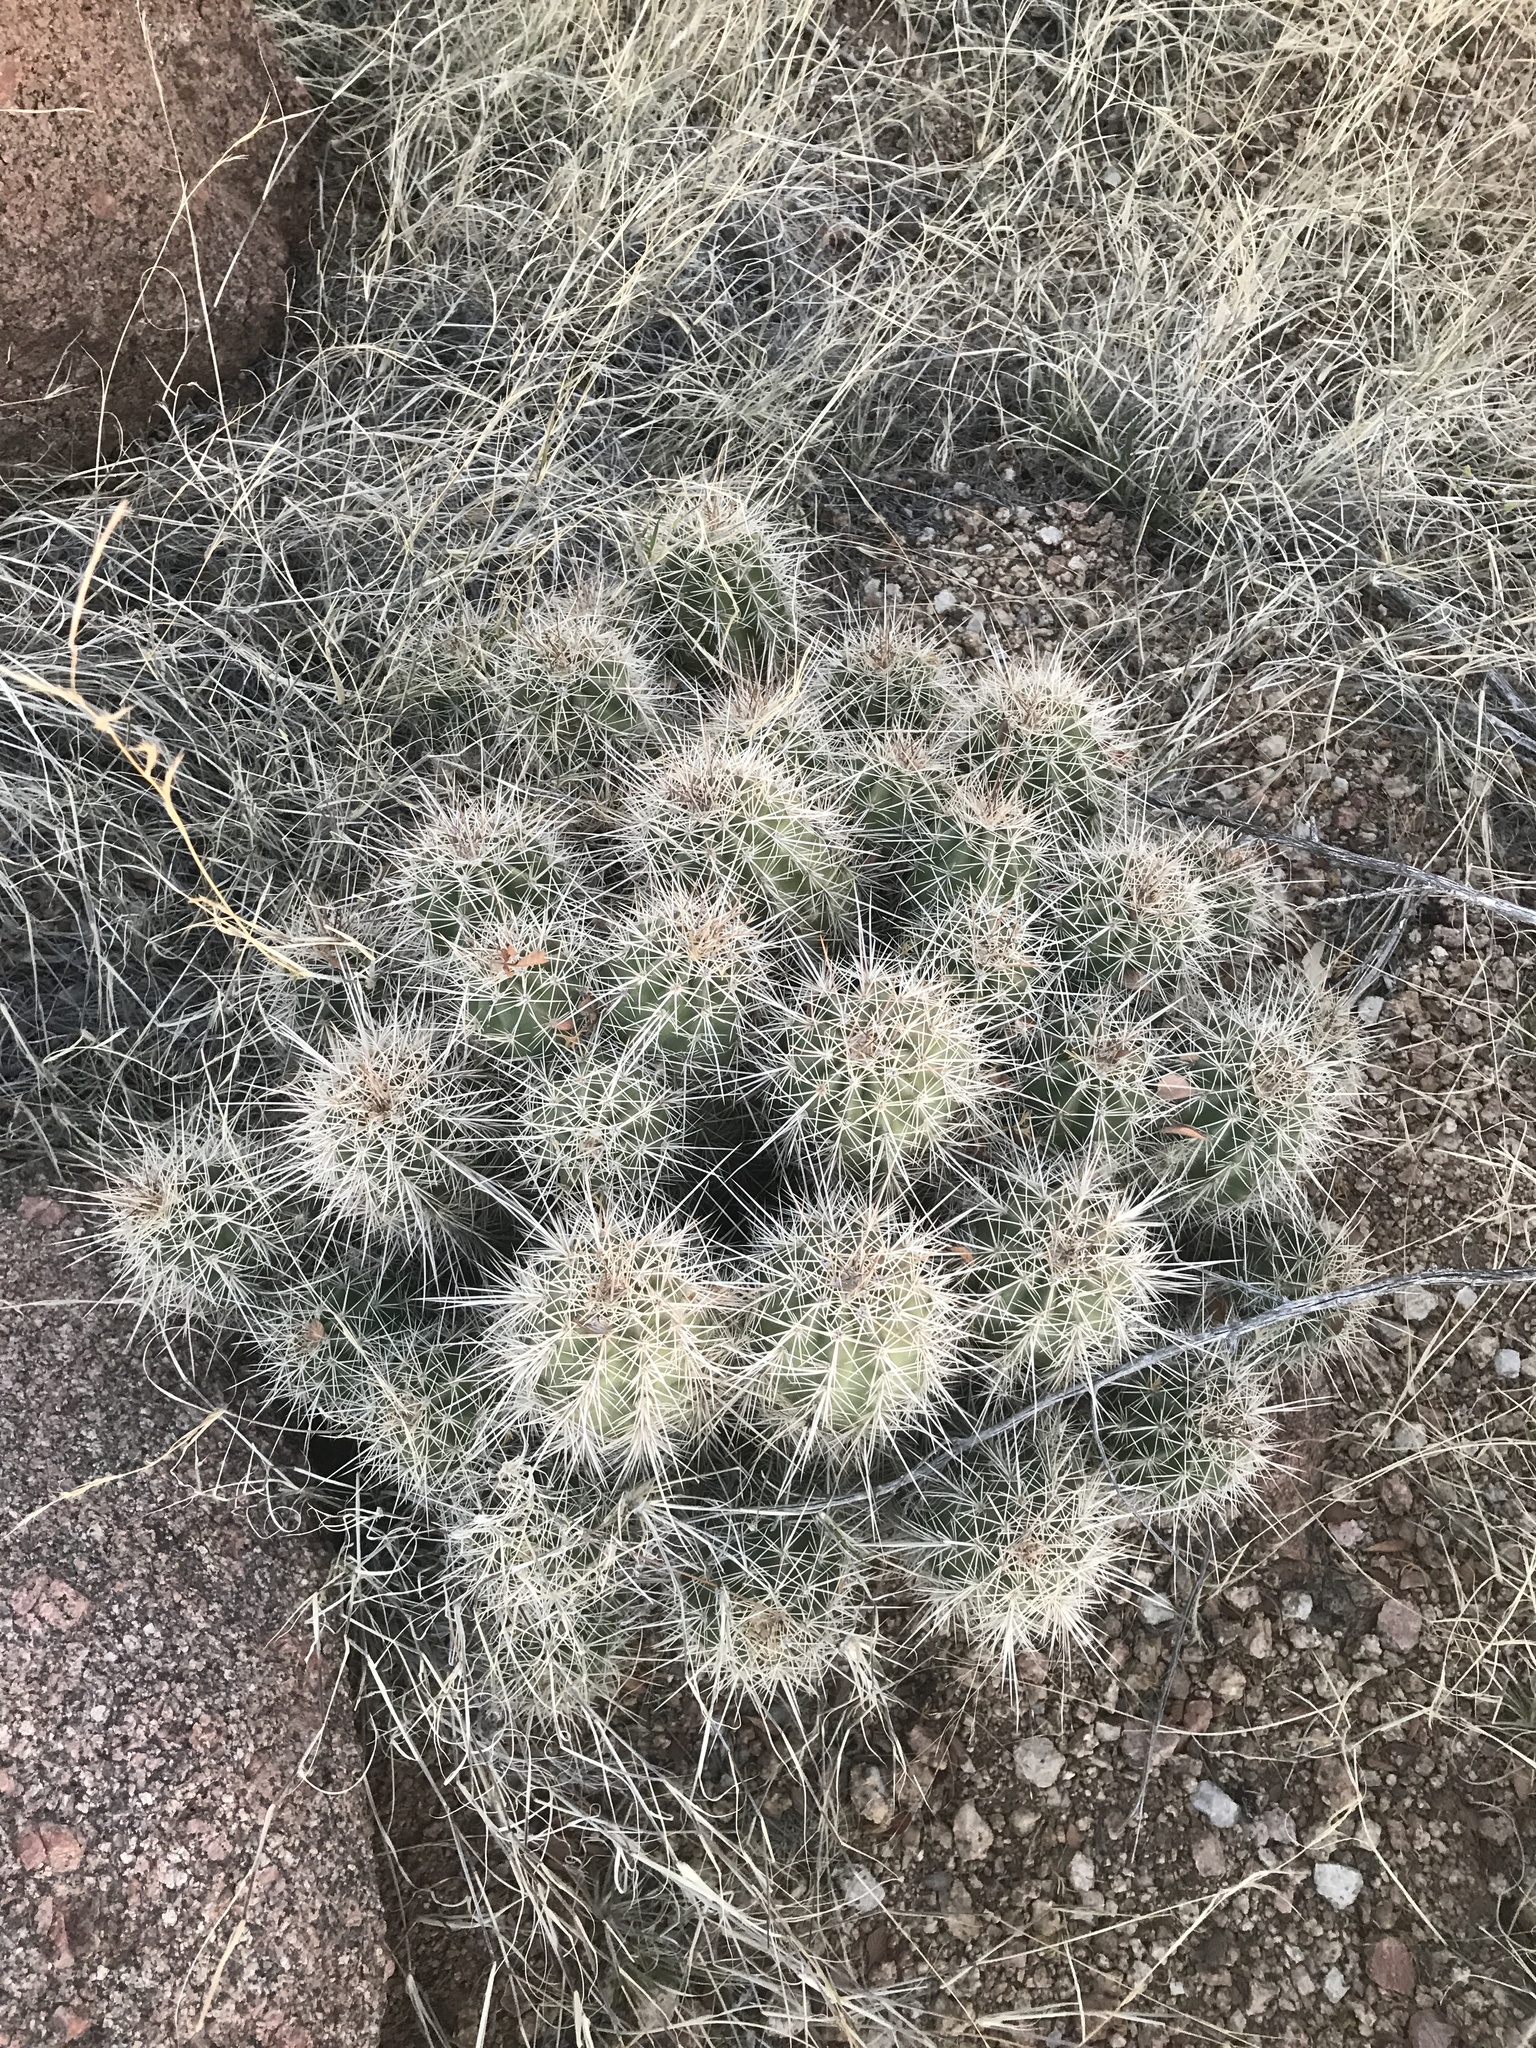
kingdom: Plantae
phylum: Tracheophyta
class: Magnoliopsida
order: Caryophyllales
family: Cactaceae
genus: Echinocereus
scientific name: Echinocereus coccineus
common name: Scarlet hedgehog cactus
